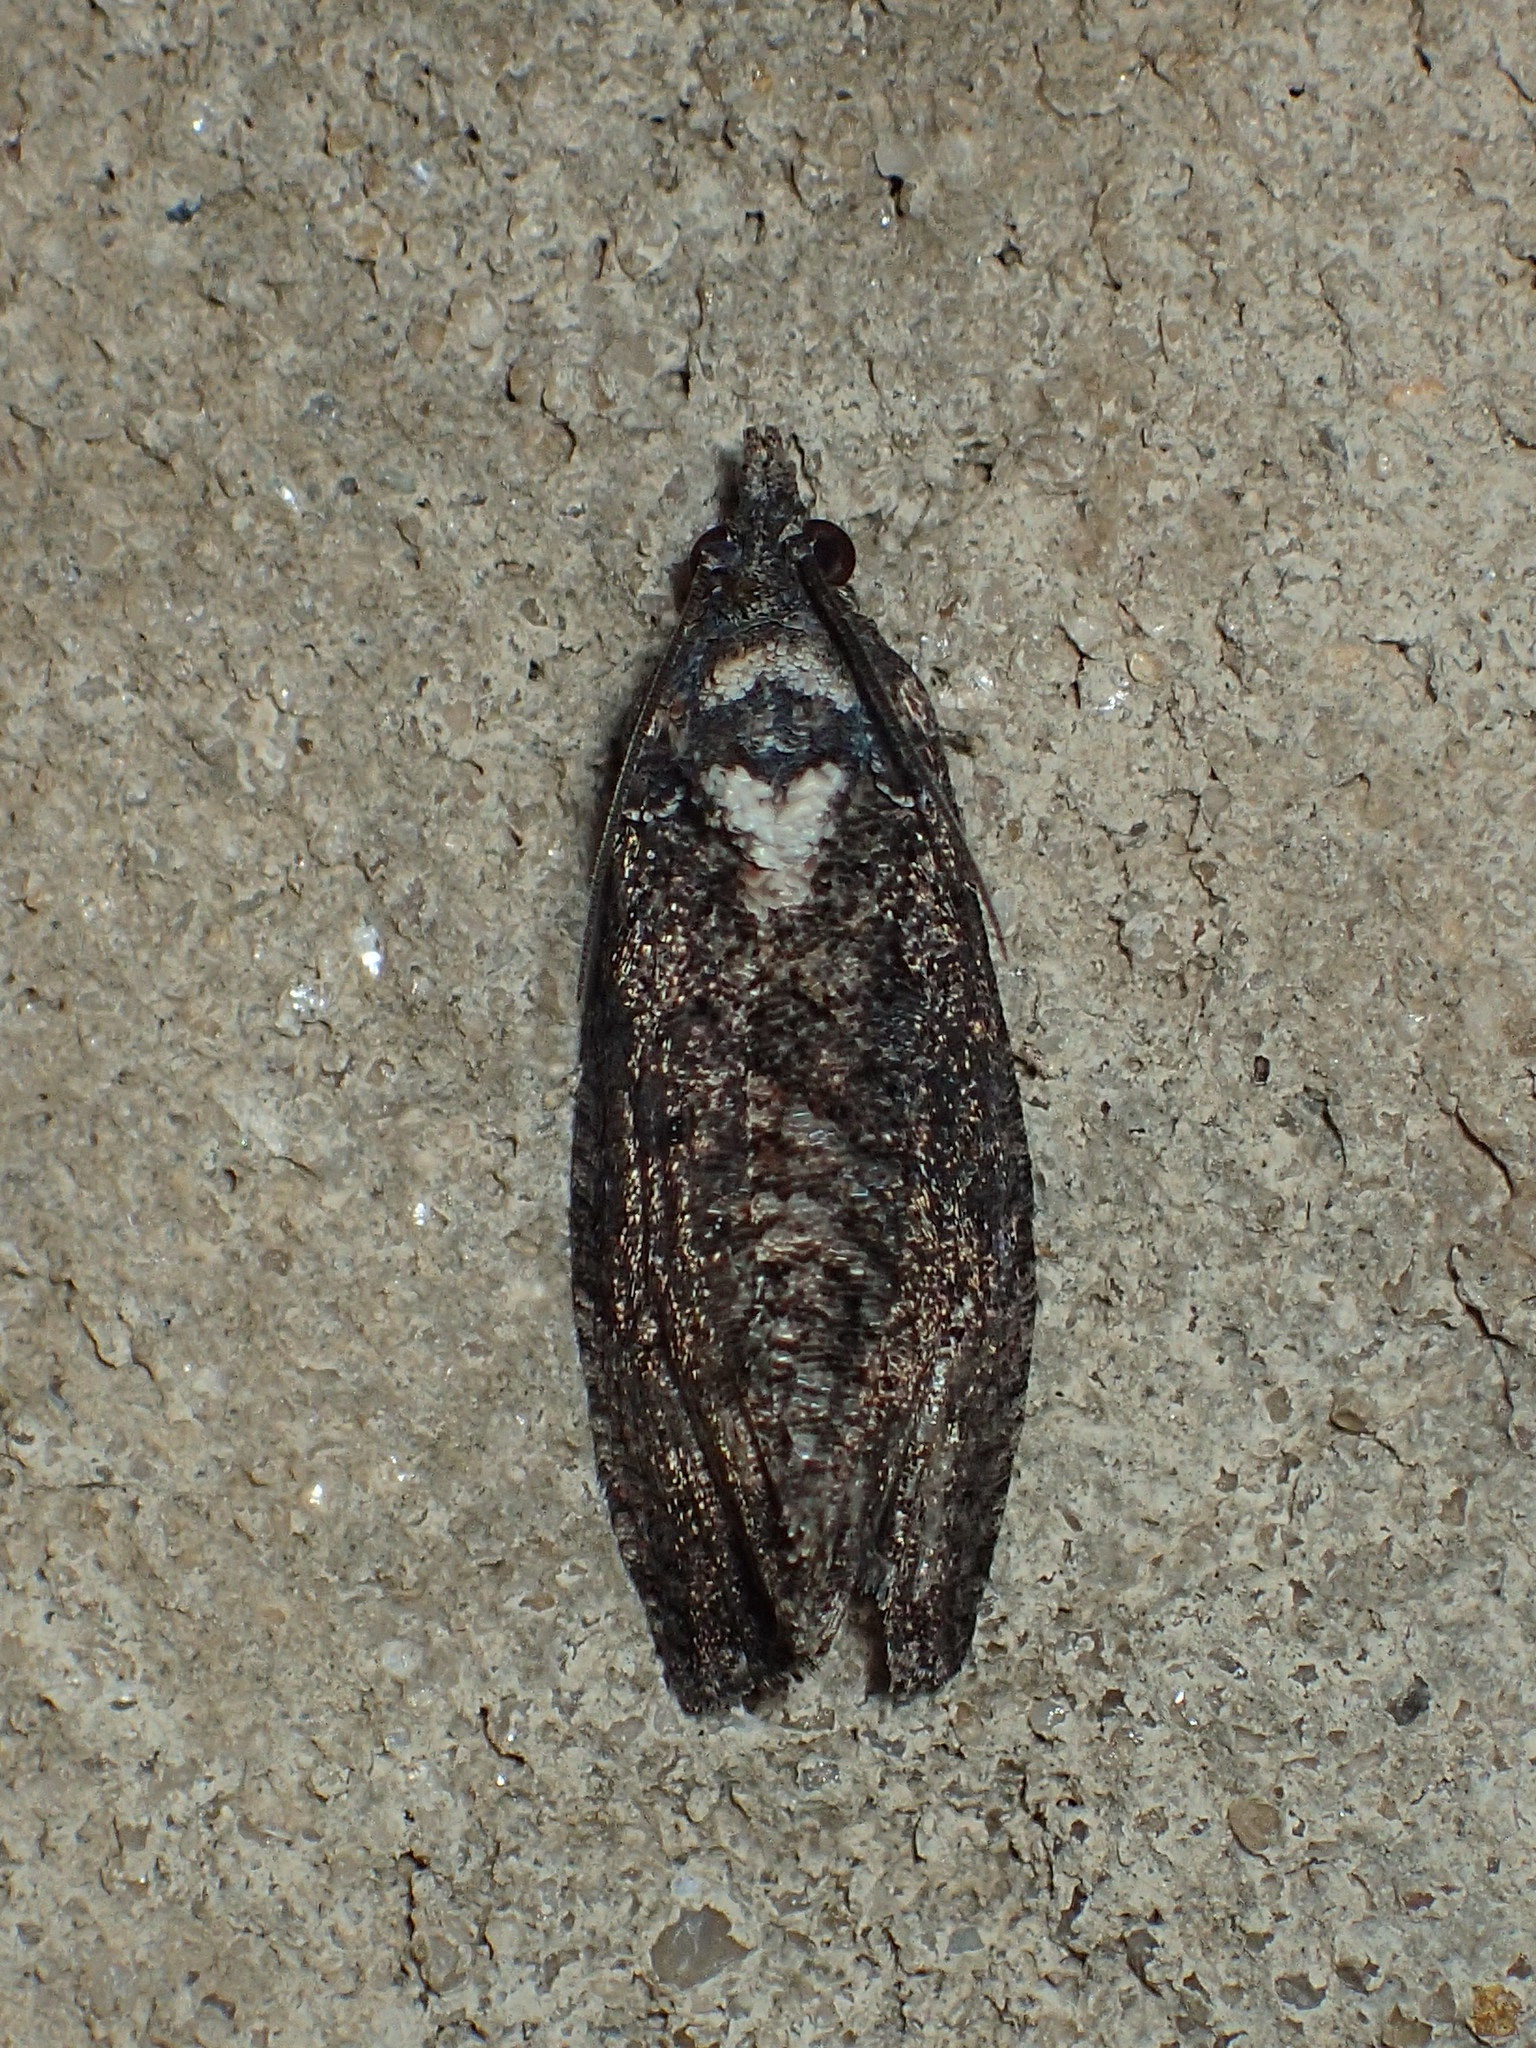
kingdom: Animalia
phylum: Arthropoda
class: Insecta
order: Lepidoptera
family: Tortricidae
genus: Gymnandrosoma
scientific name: Gymnandrosoma punctidiscanum
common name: Dotted ecdytolopha moth
